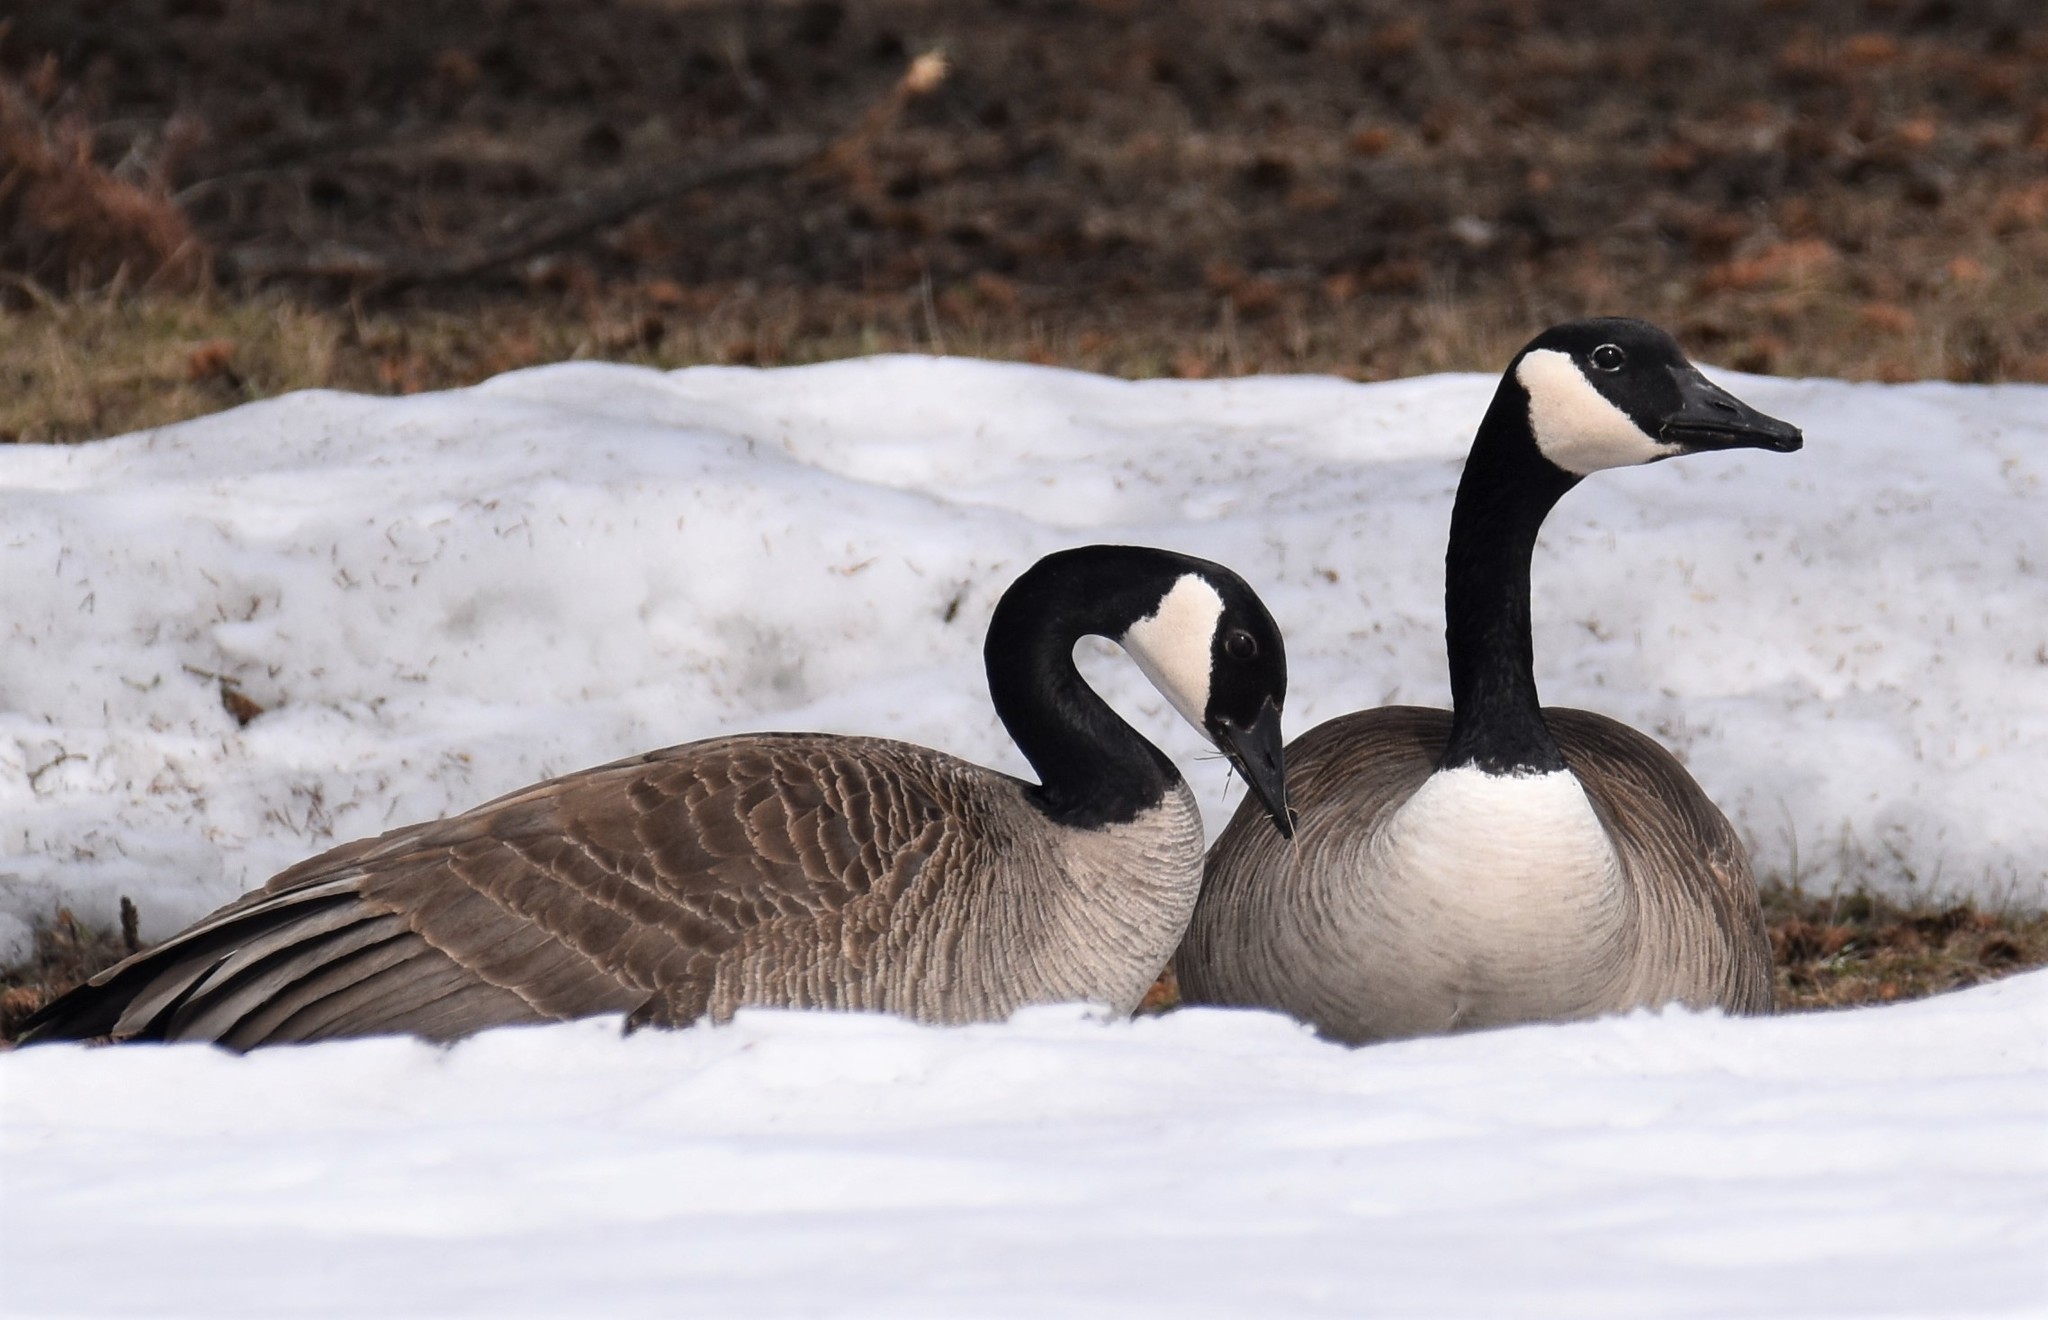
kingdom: Animalia
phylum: Chordata
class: Aves
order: Anseriformes
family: Anatidae
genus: Branta
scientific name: Branta canadensis
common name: Canada goose
